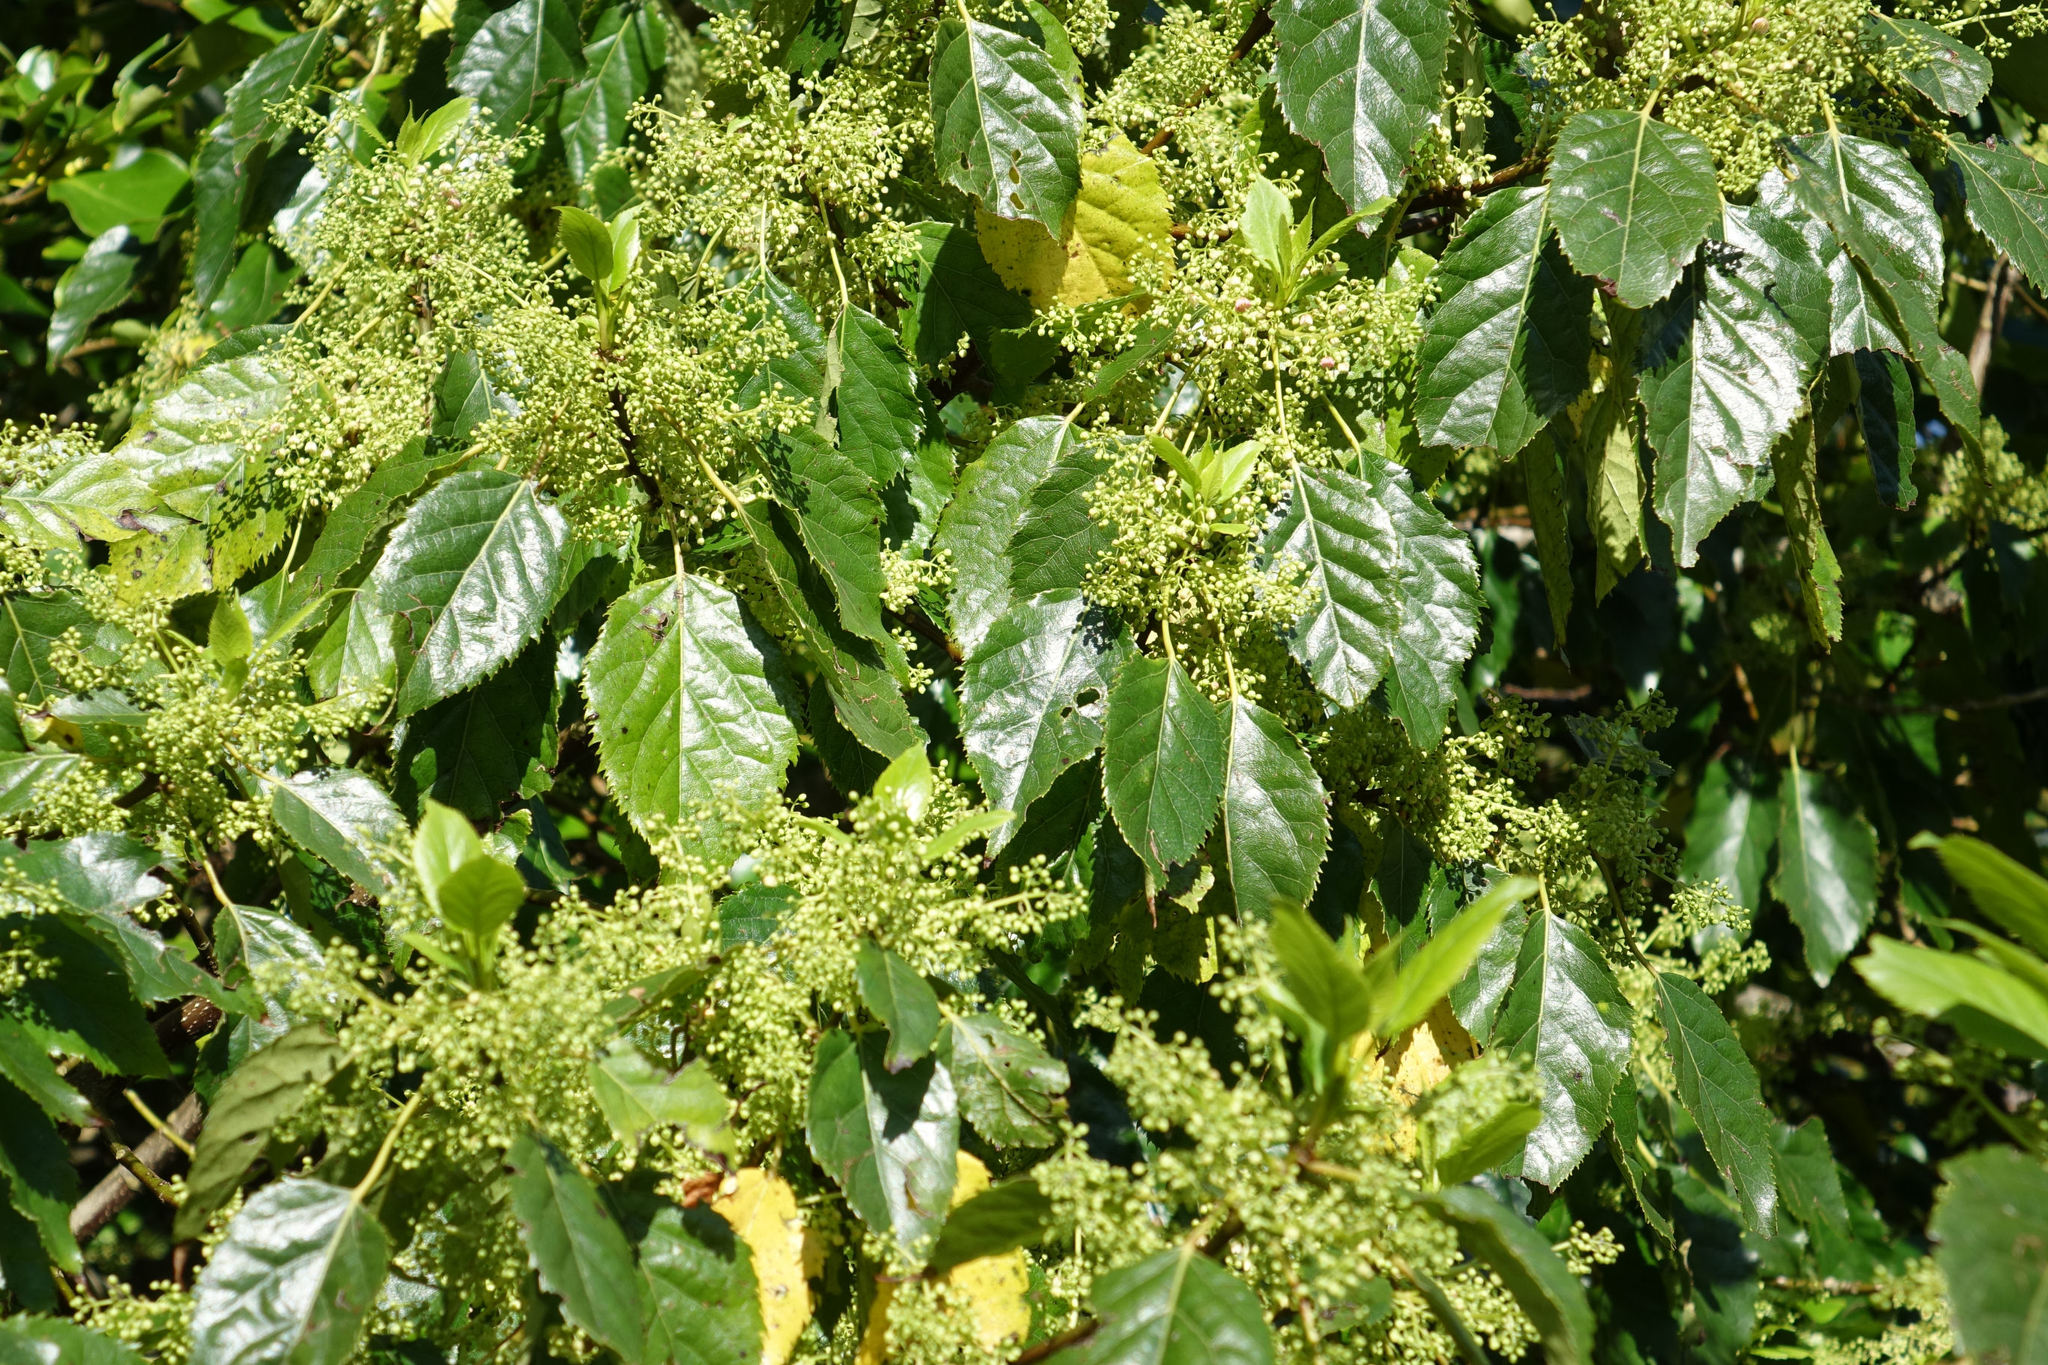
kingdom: Plantae
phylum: Tracheophyta
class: Magnoliopsida
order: Oxalidales
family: Elaeocarpaceae
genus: Aristotelia
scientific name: Aristotelia serrata
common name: New zealand wineberry
